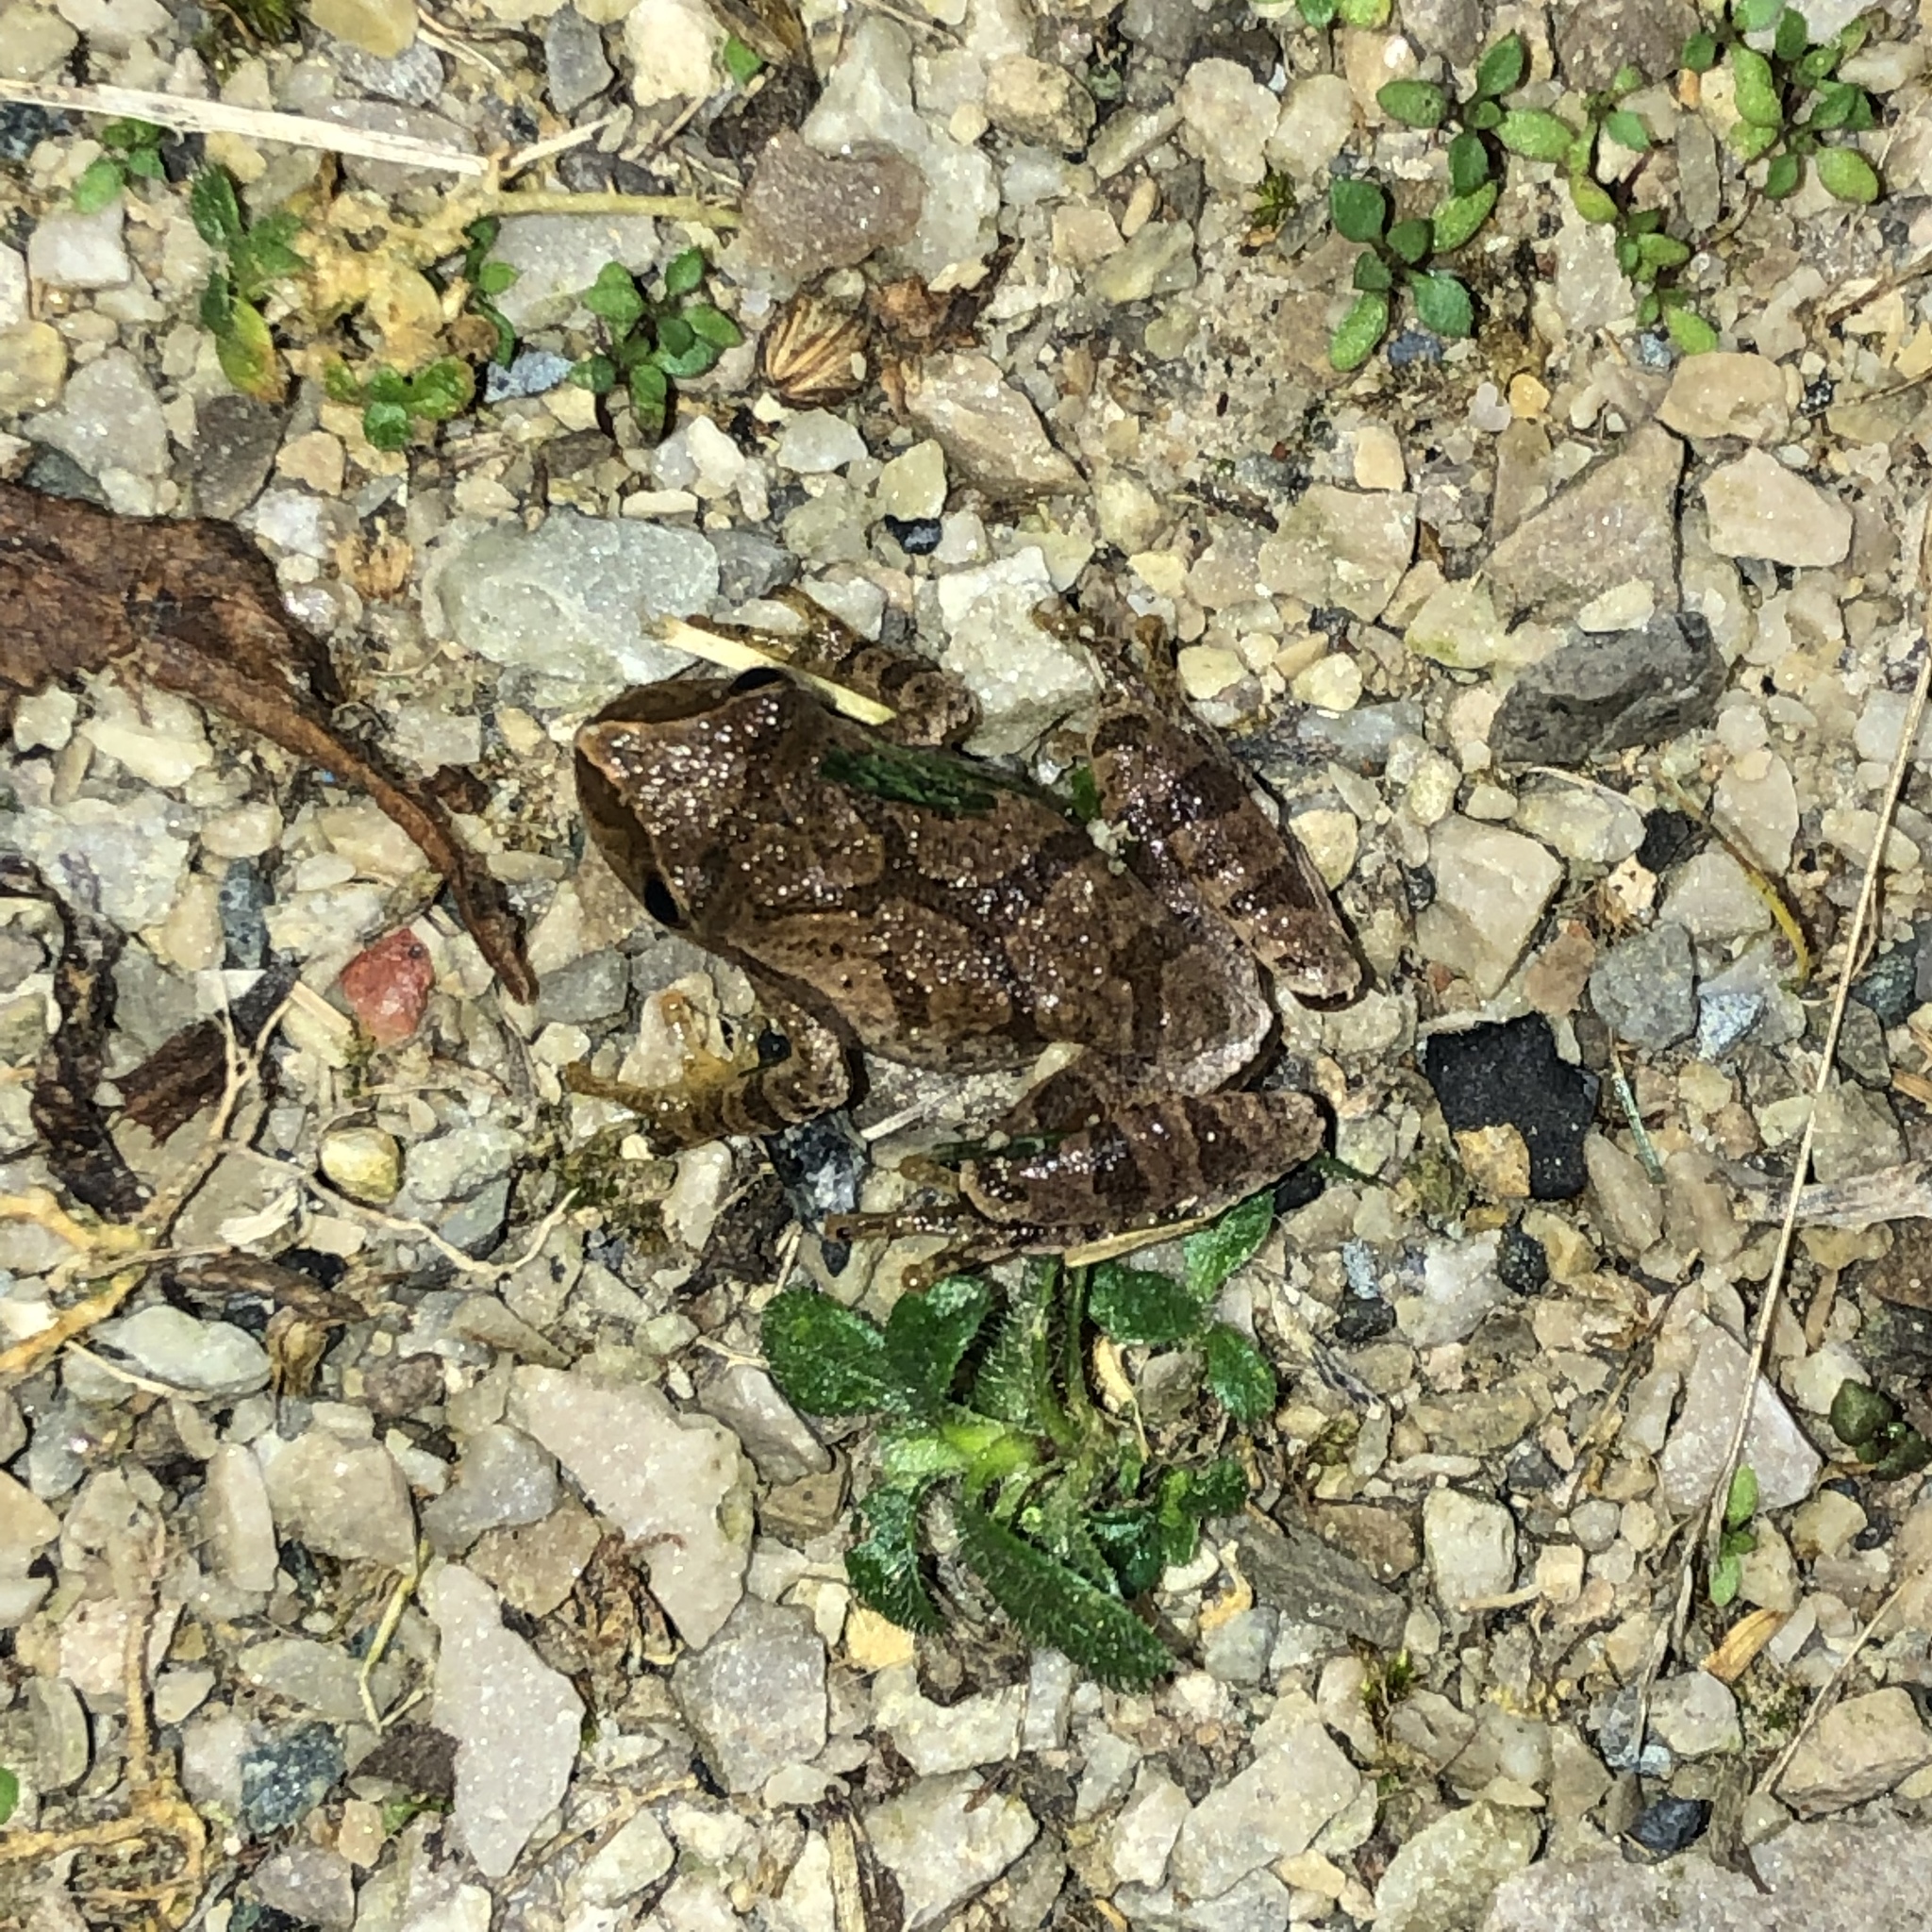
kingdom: Animalia
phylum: Chordata
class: Amphibia
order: Anura
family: Hylidae
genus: Pseudacris
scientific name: Pseudacris crucifer
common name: Spring peeper
